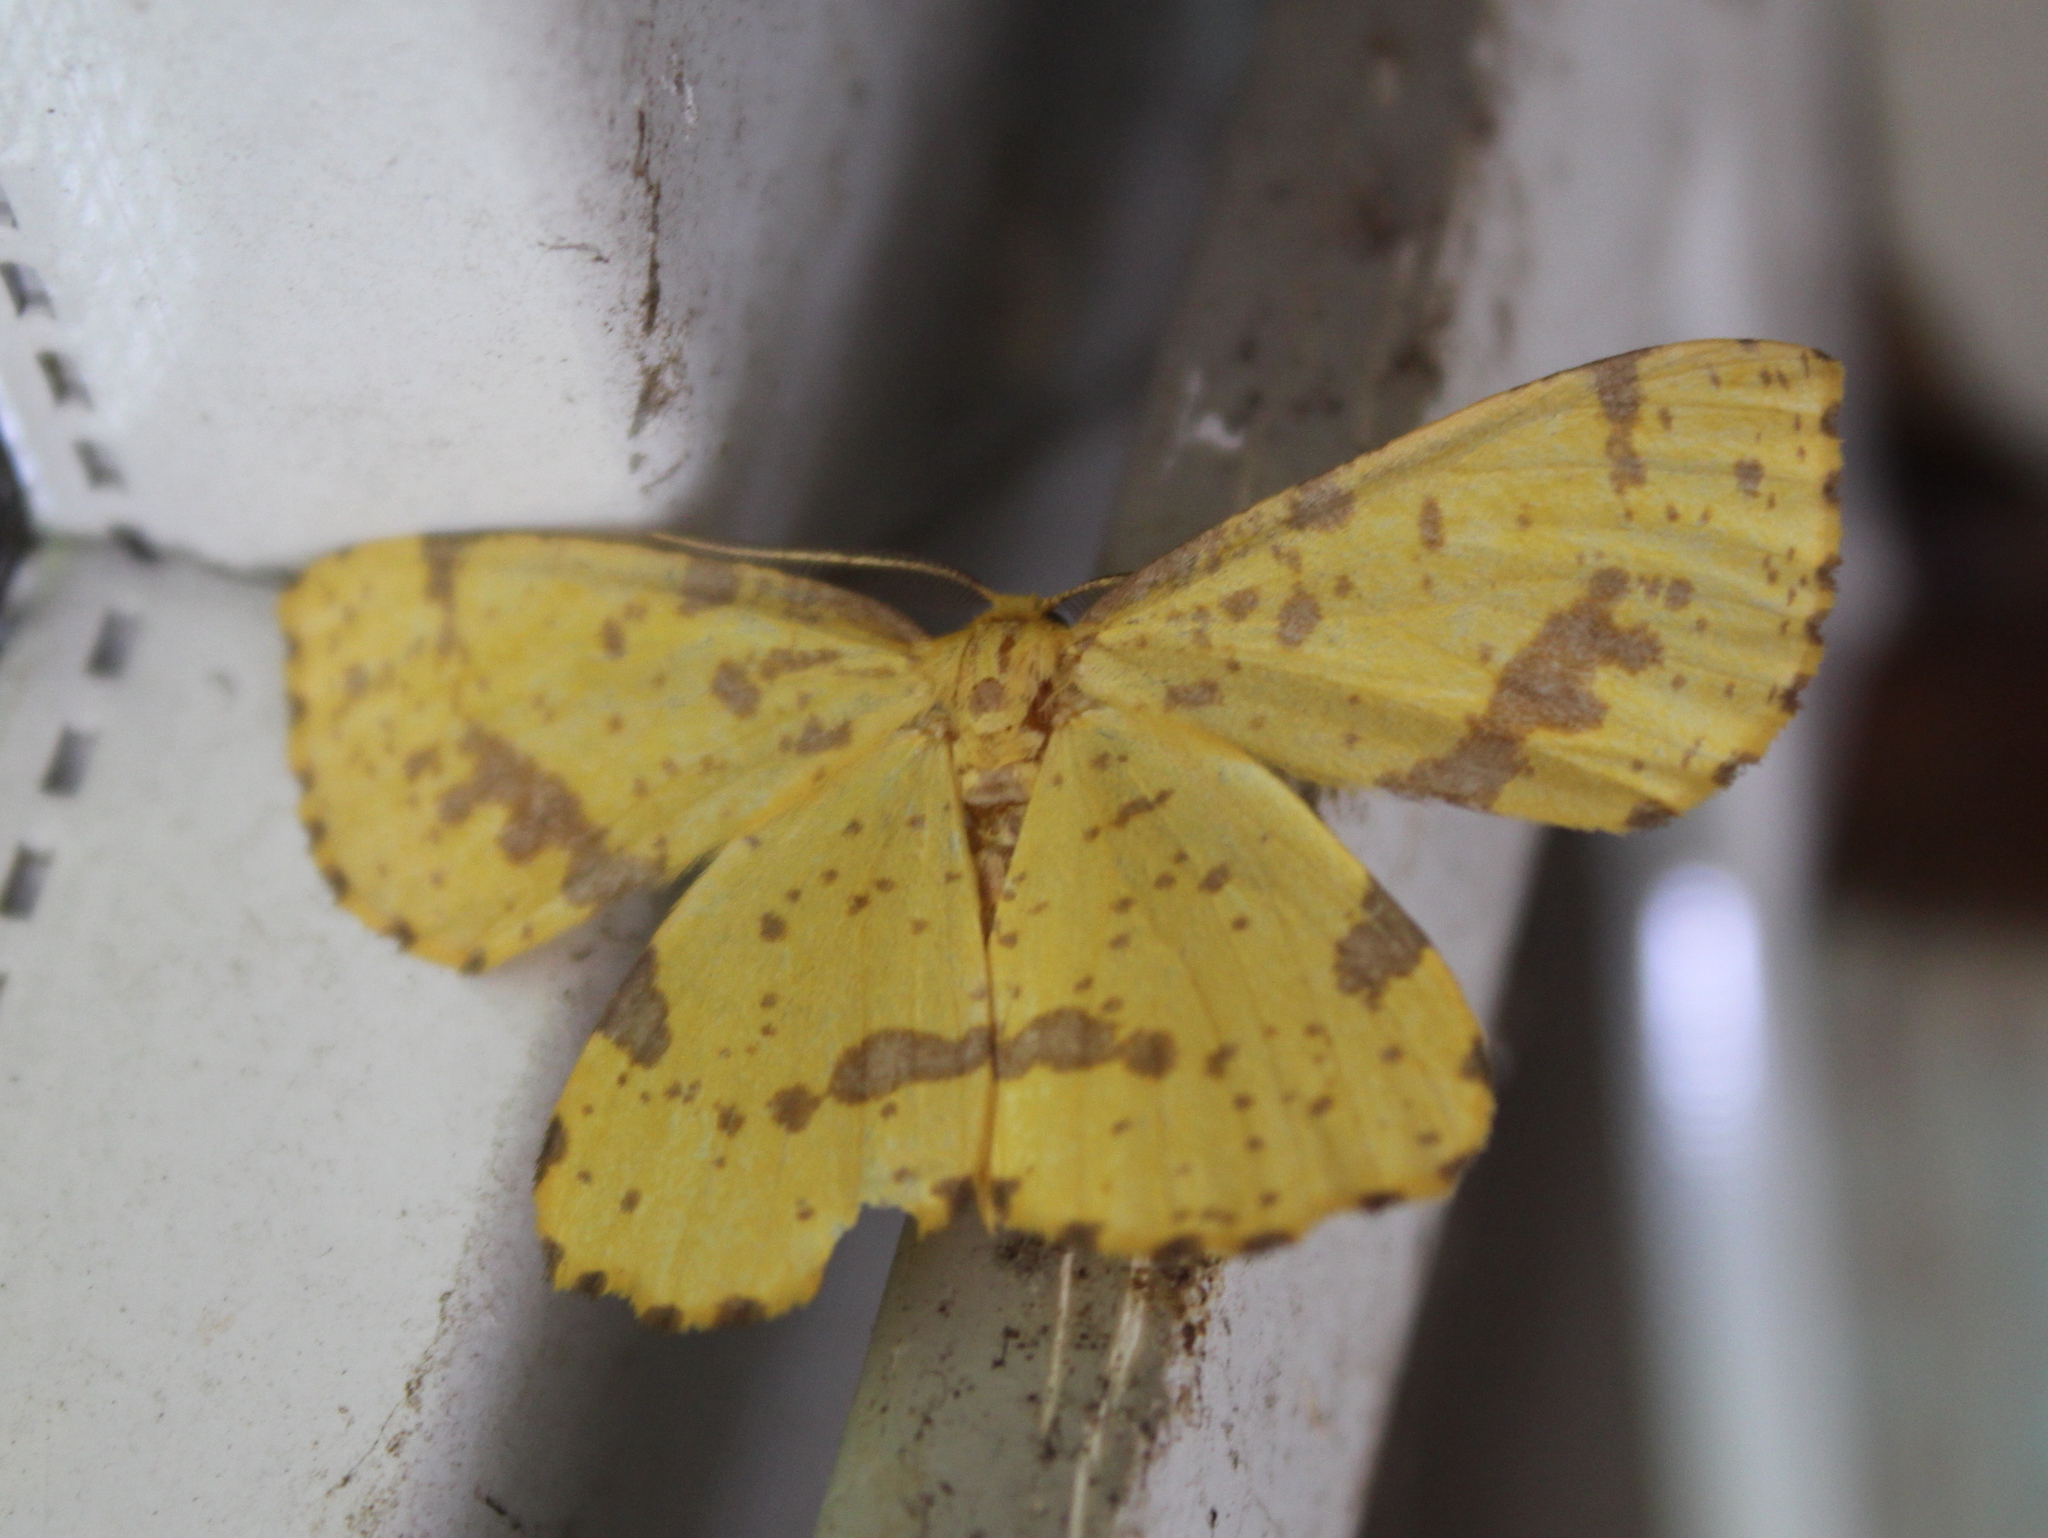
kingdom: Animalia
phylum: Arthropoda
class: Insecta
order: Lepidoptera
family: Geometridae
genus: Xanthotype
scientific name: Xanthotype
